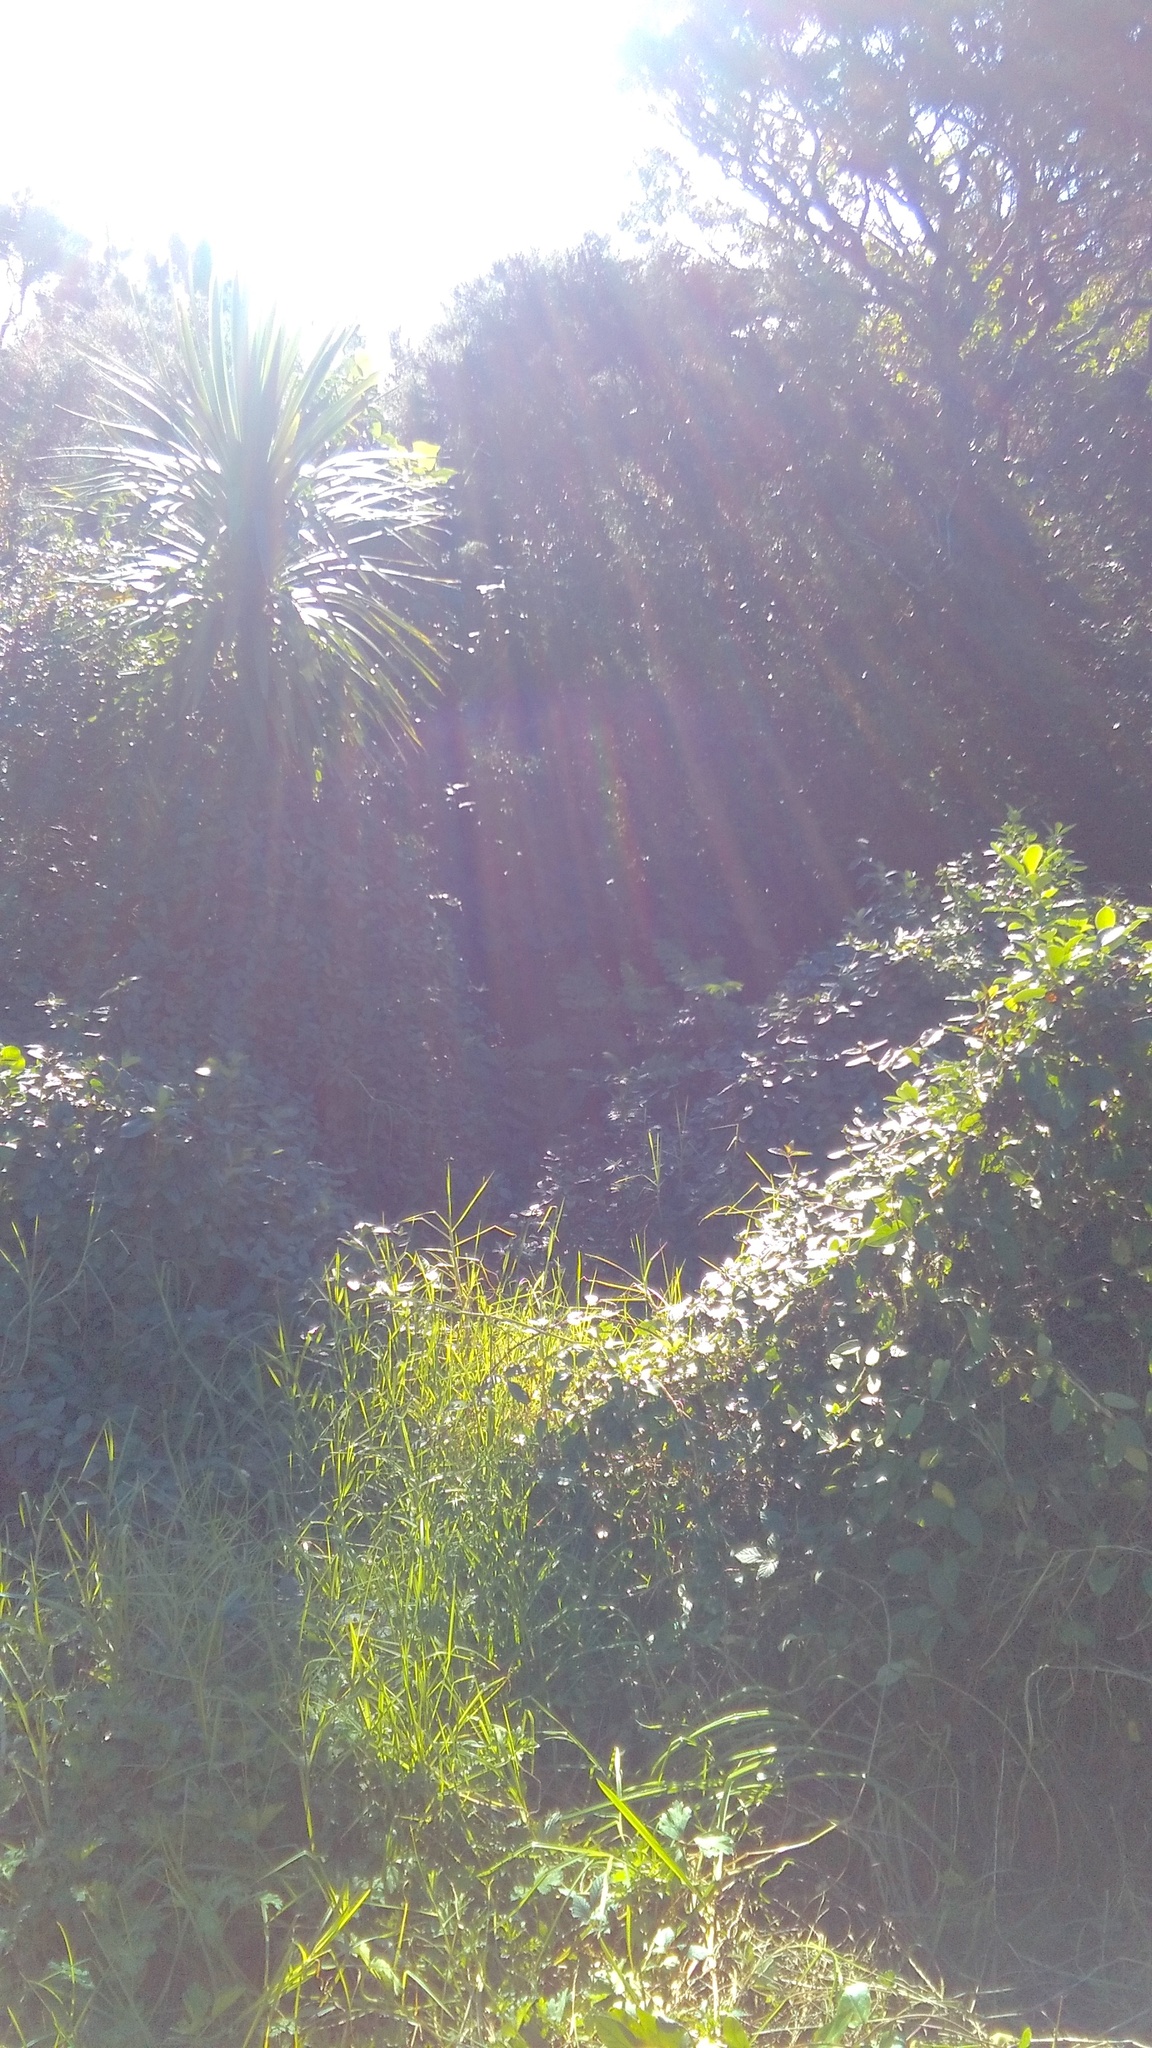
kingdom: Plantae
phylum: Tracheophyta
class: Liliopsida
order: Poales
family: Poaceae
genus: Cenchrus
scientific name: Cenchrus clandestinus
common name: Kikuyugrass
